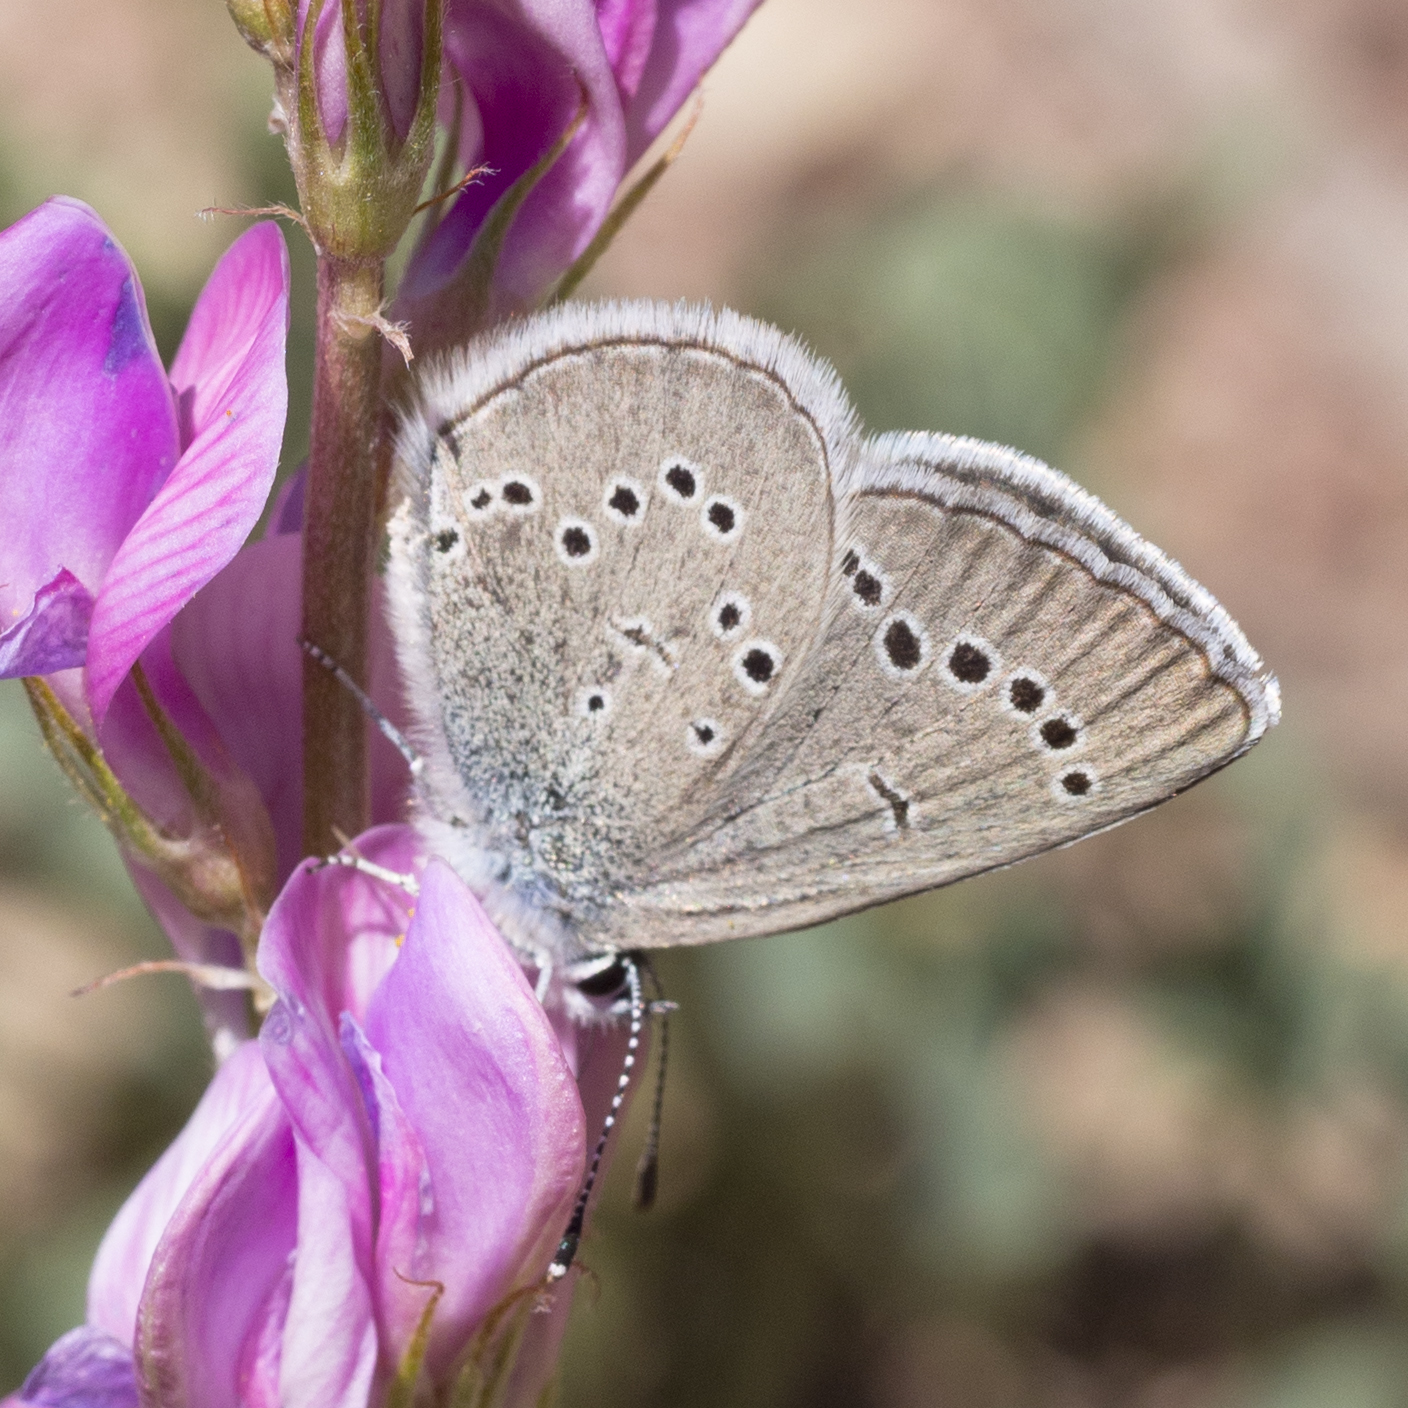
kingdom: Animalia
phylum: Arthropoda
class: Insecta
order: Lepidoptera
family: Lycaenidae
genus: Glaucopsyche
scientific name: Glaucopsyche lygdamus
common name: Silvery blue
